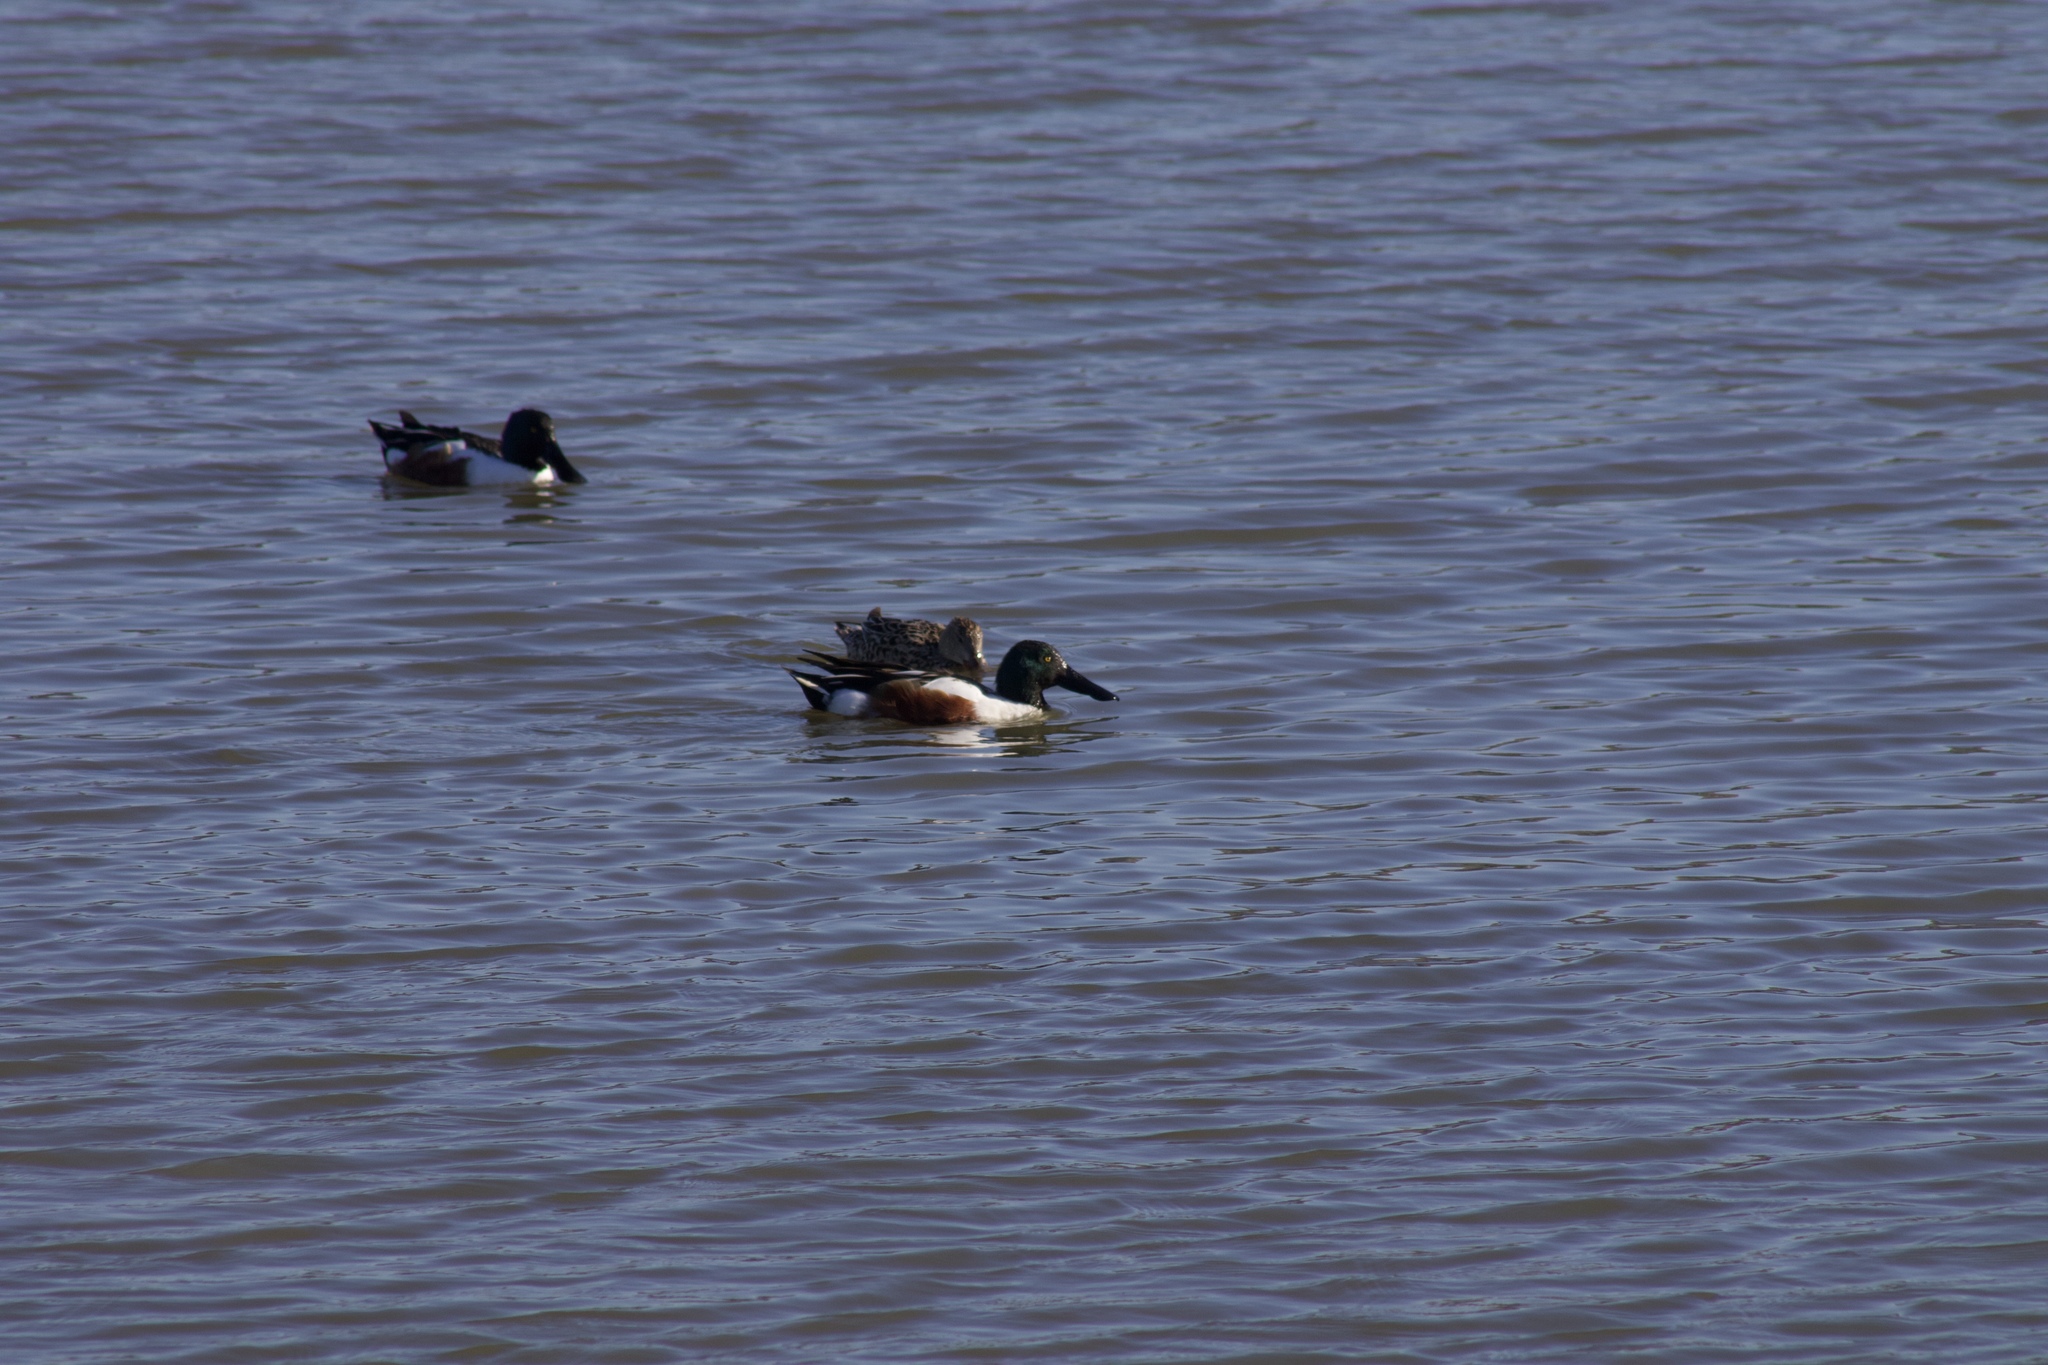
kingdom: Animalia
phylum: Chordata
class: Aves
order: Anseriformes
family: Anatidae
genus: Spatula
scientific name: Spatula clypeata
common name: Northern shoveler
